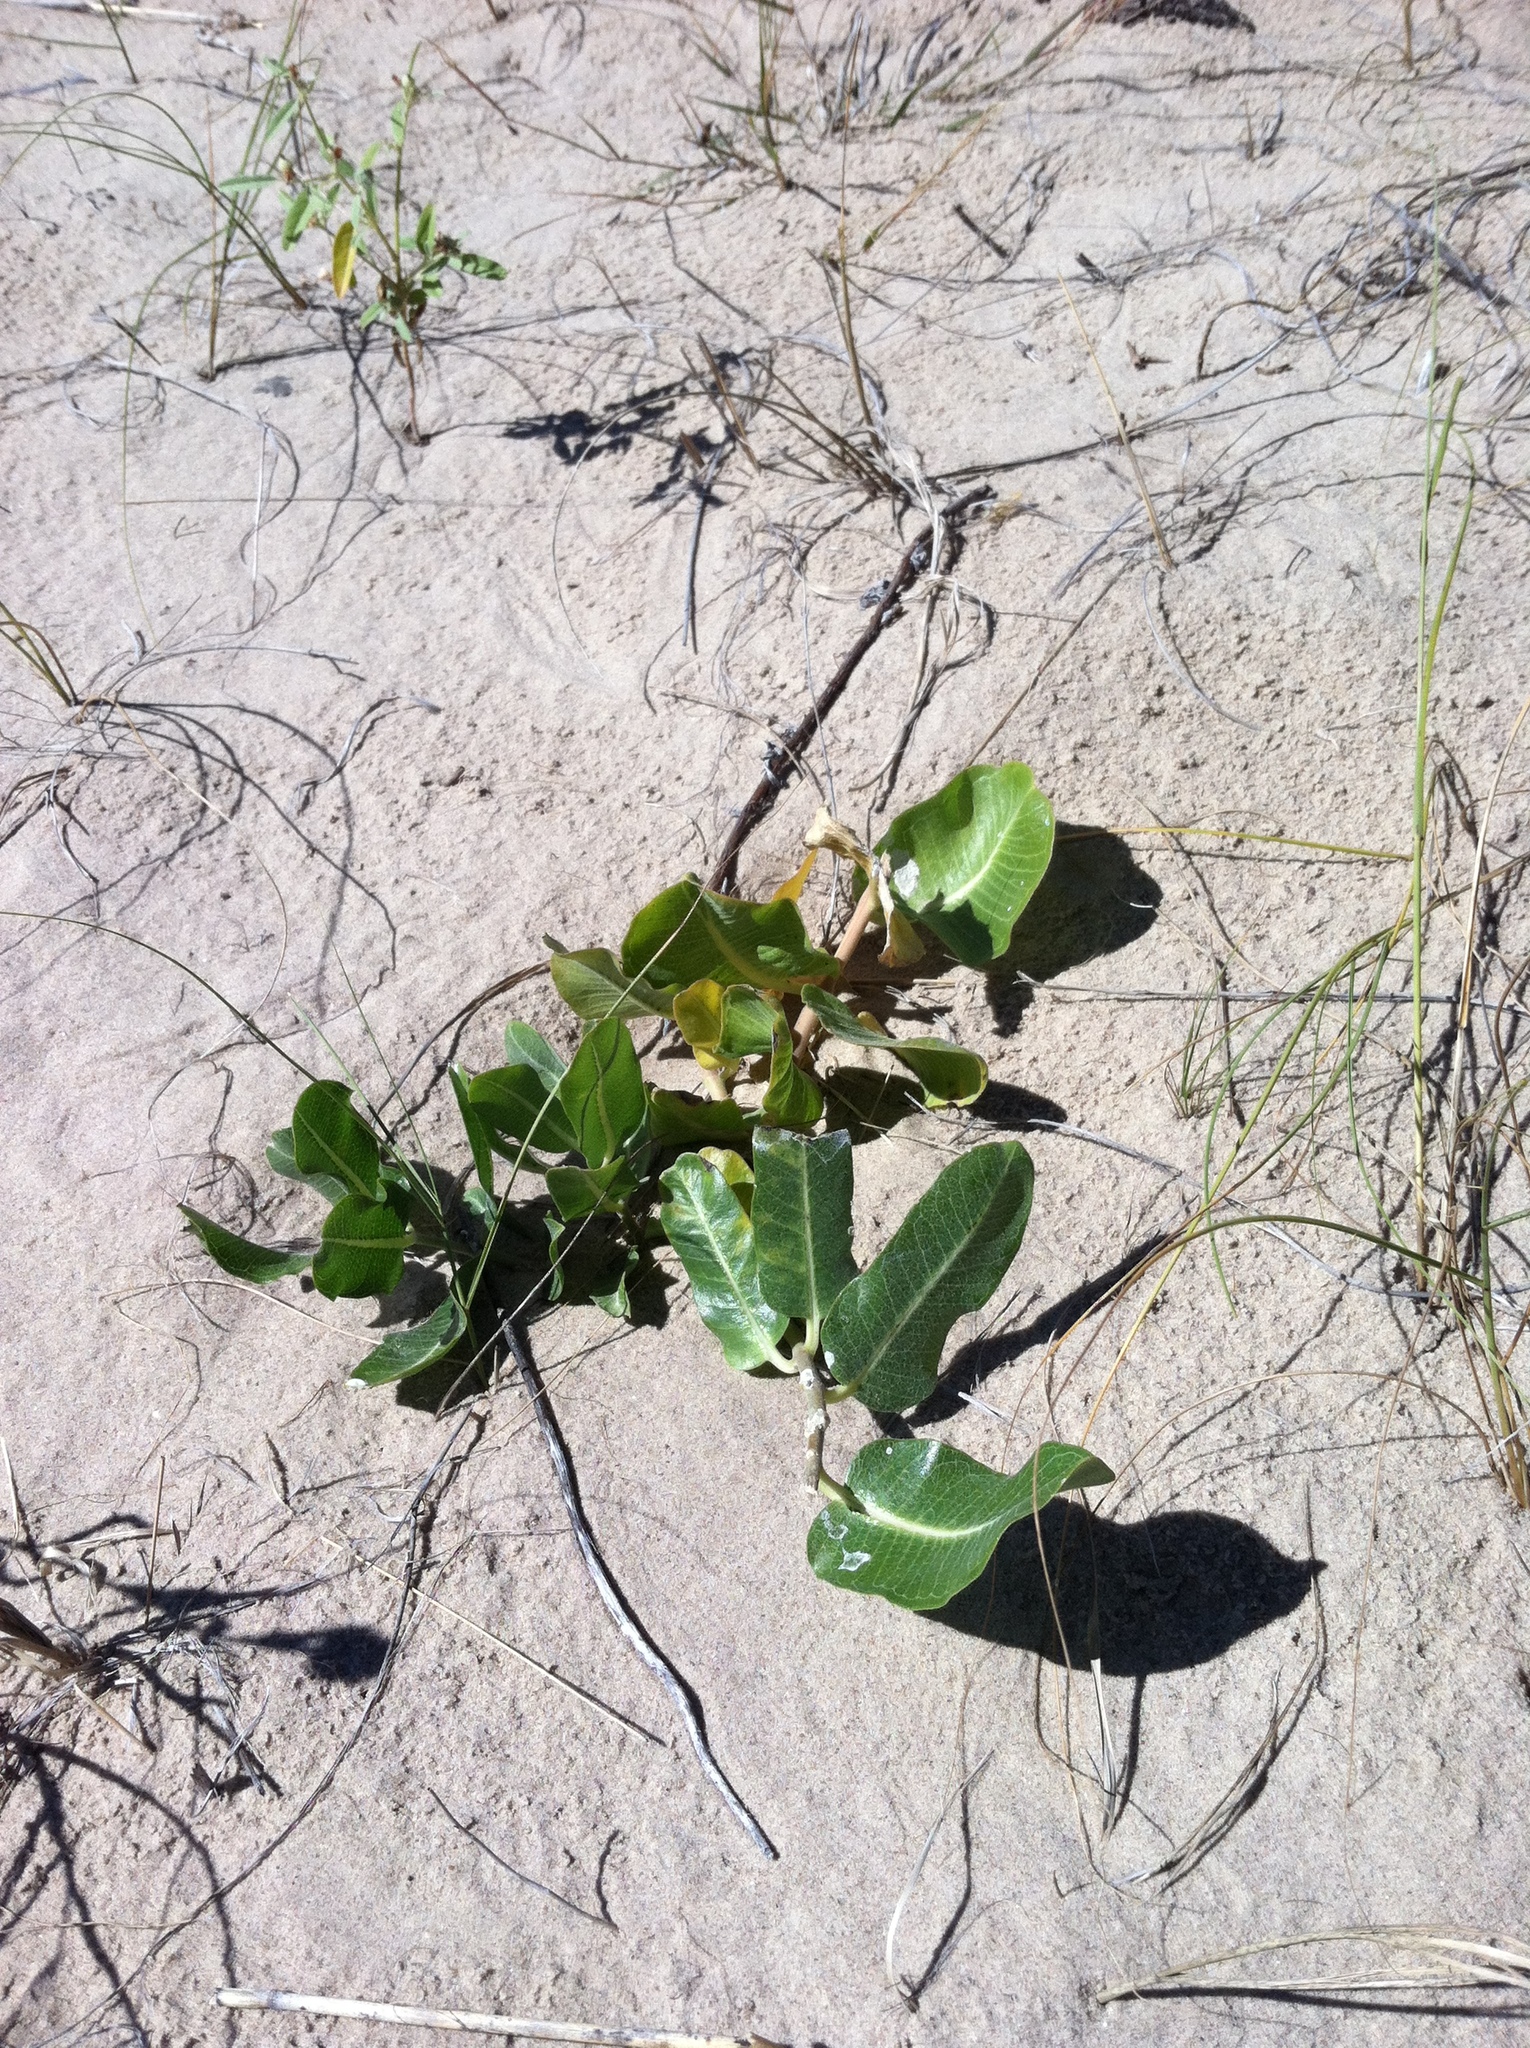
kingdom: Plantae
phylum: Tracheophyta
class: Magnoliopsida
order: Gentianales
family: Apocynaceae
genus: Asclepias
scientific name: Asclepias arenaria
